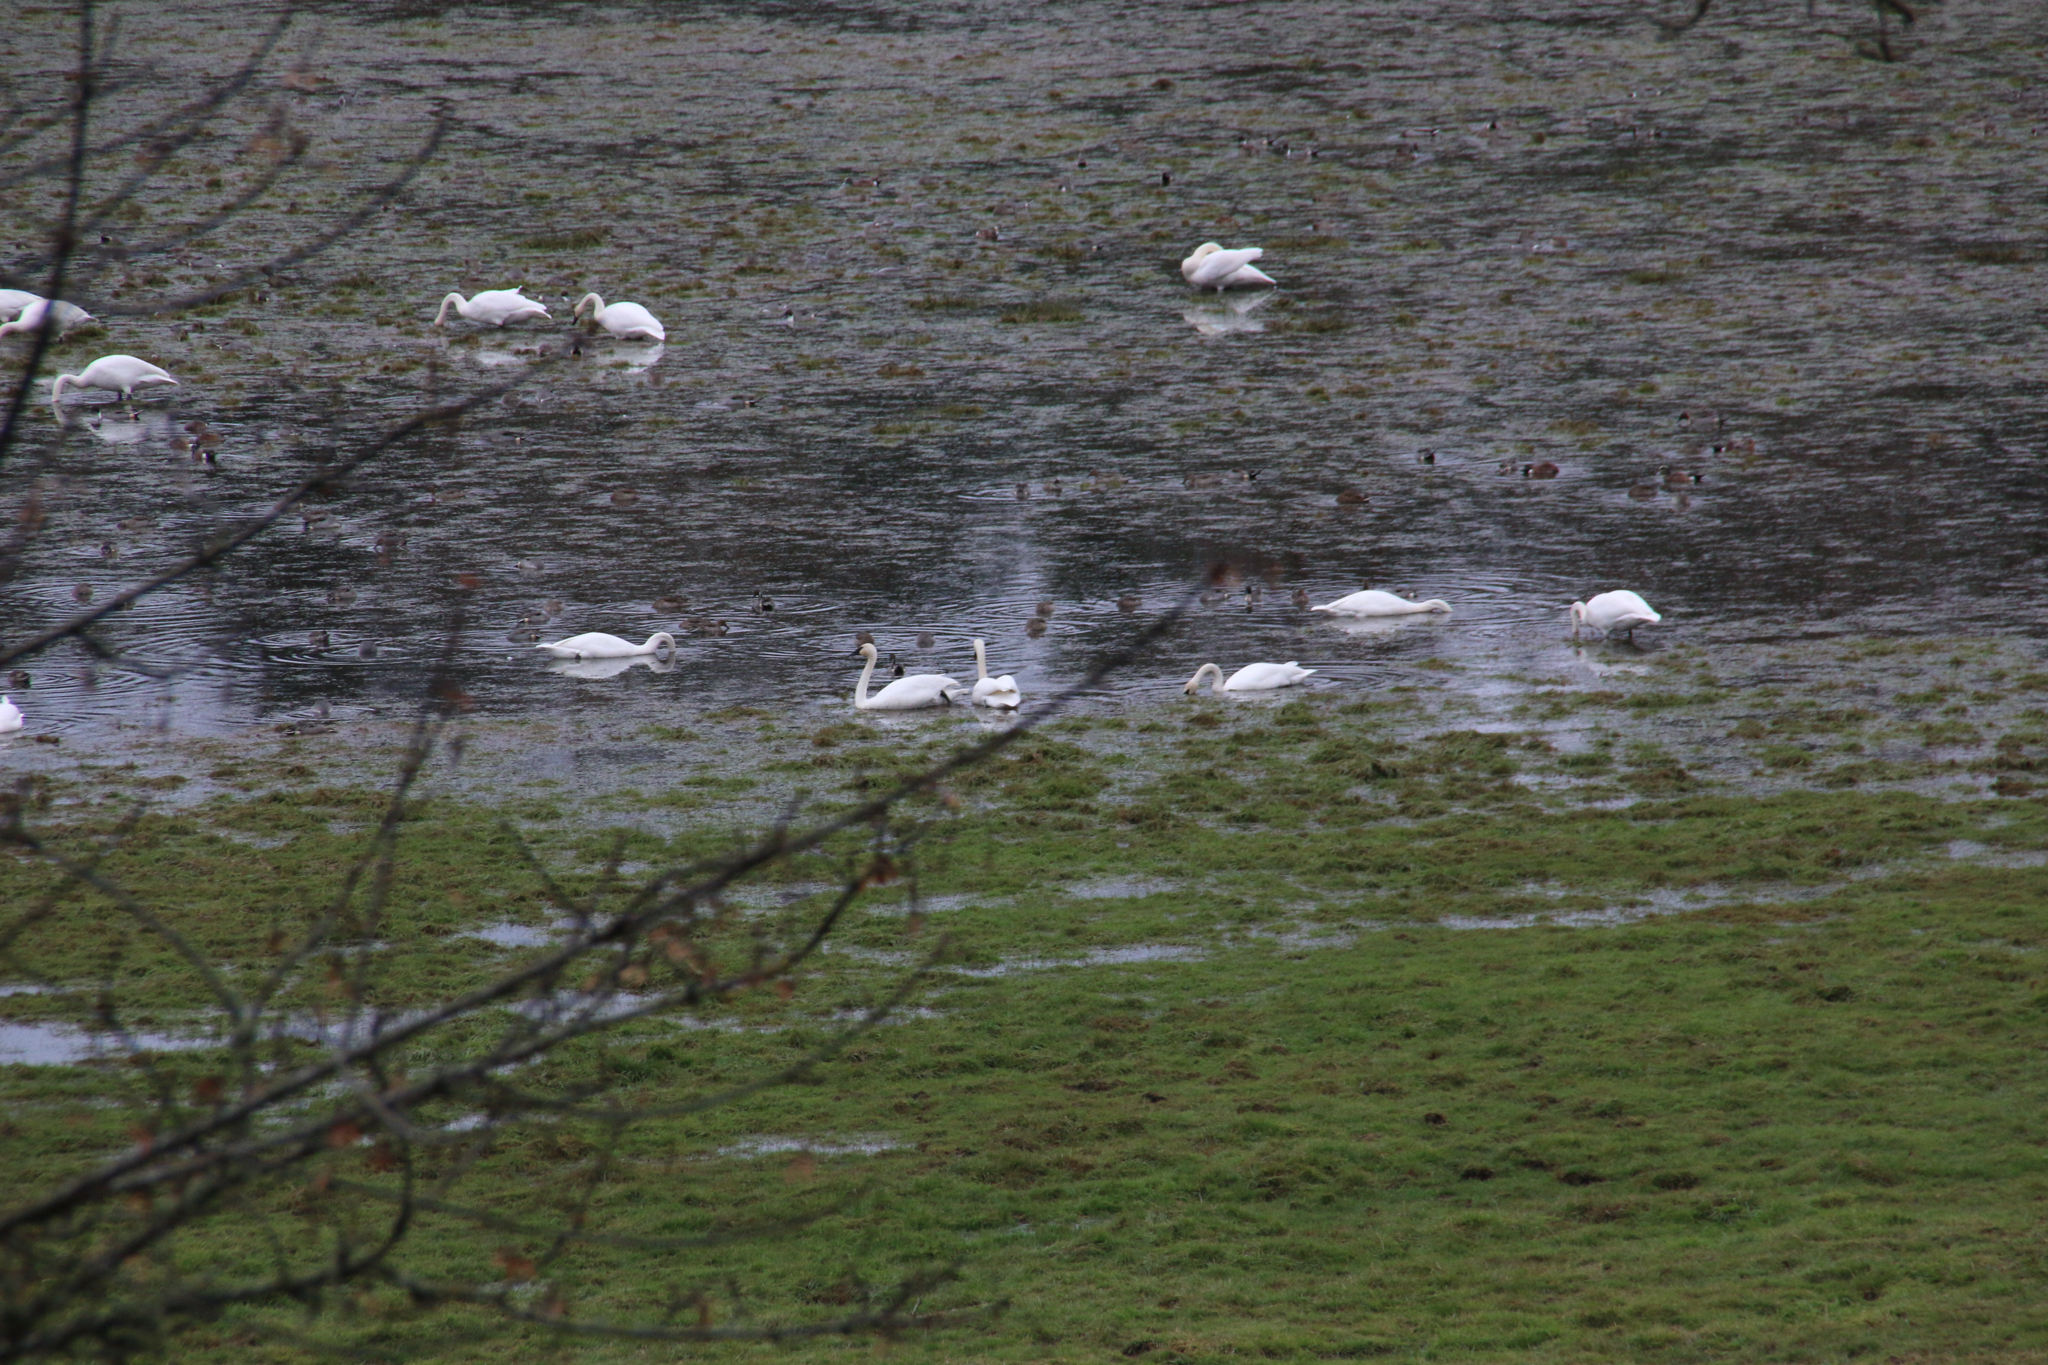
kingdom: Animalia
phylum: Chordata
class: Aves
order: Anseriformes
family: Anatidae
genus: Cygnus
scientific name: Cygnus buccinator
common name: Trumpeter swan
